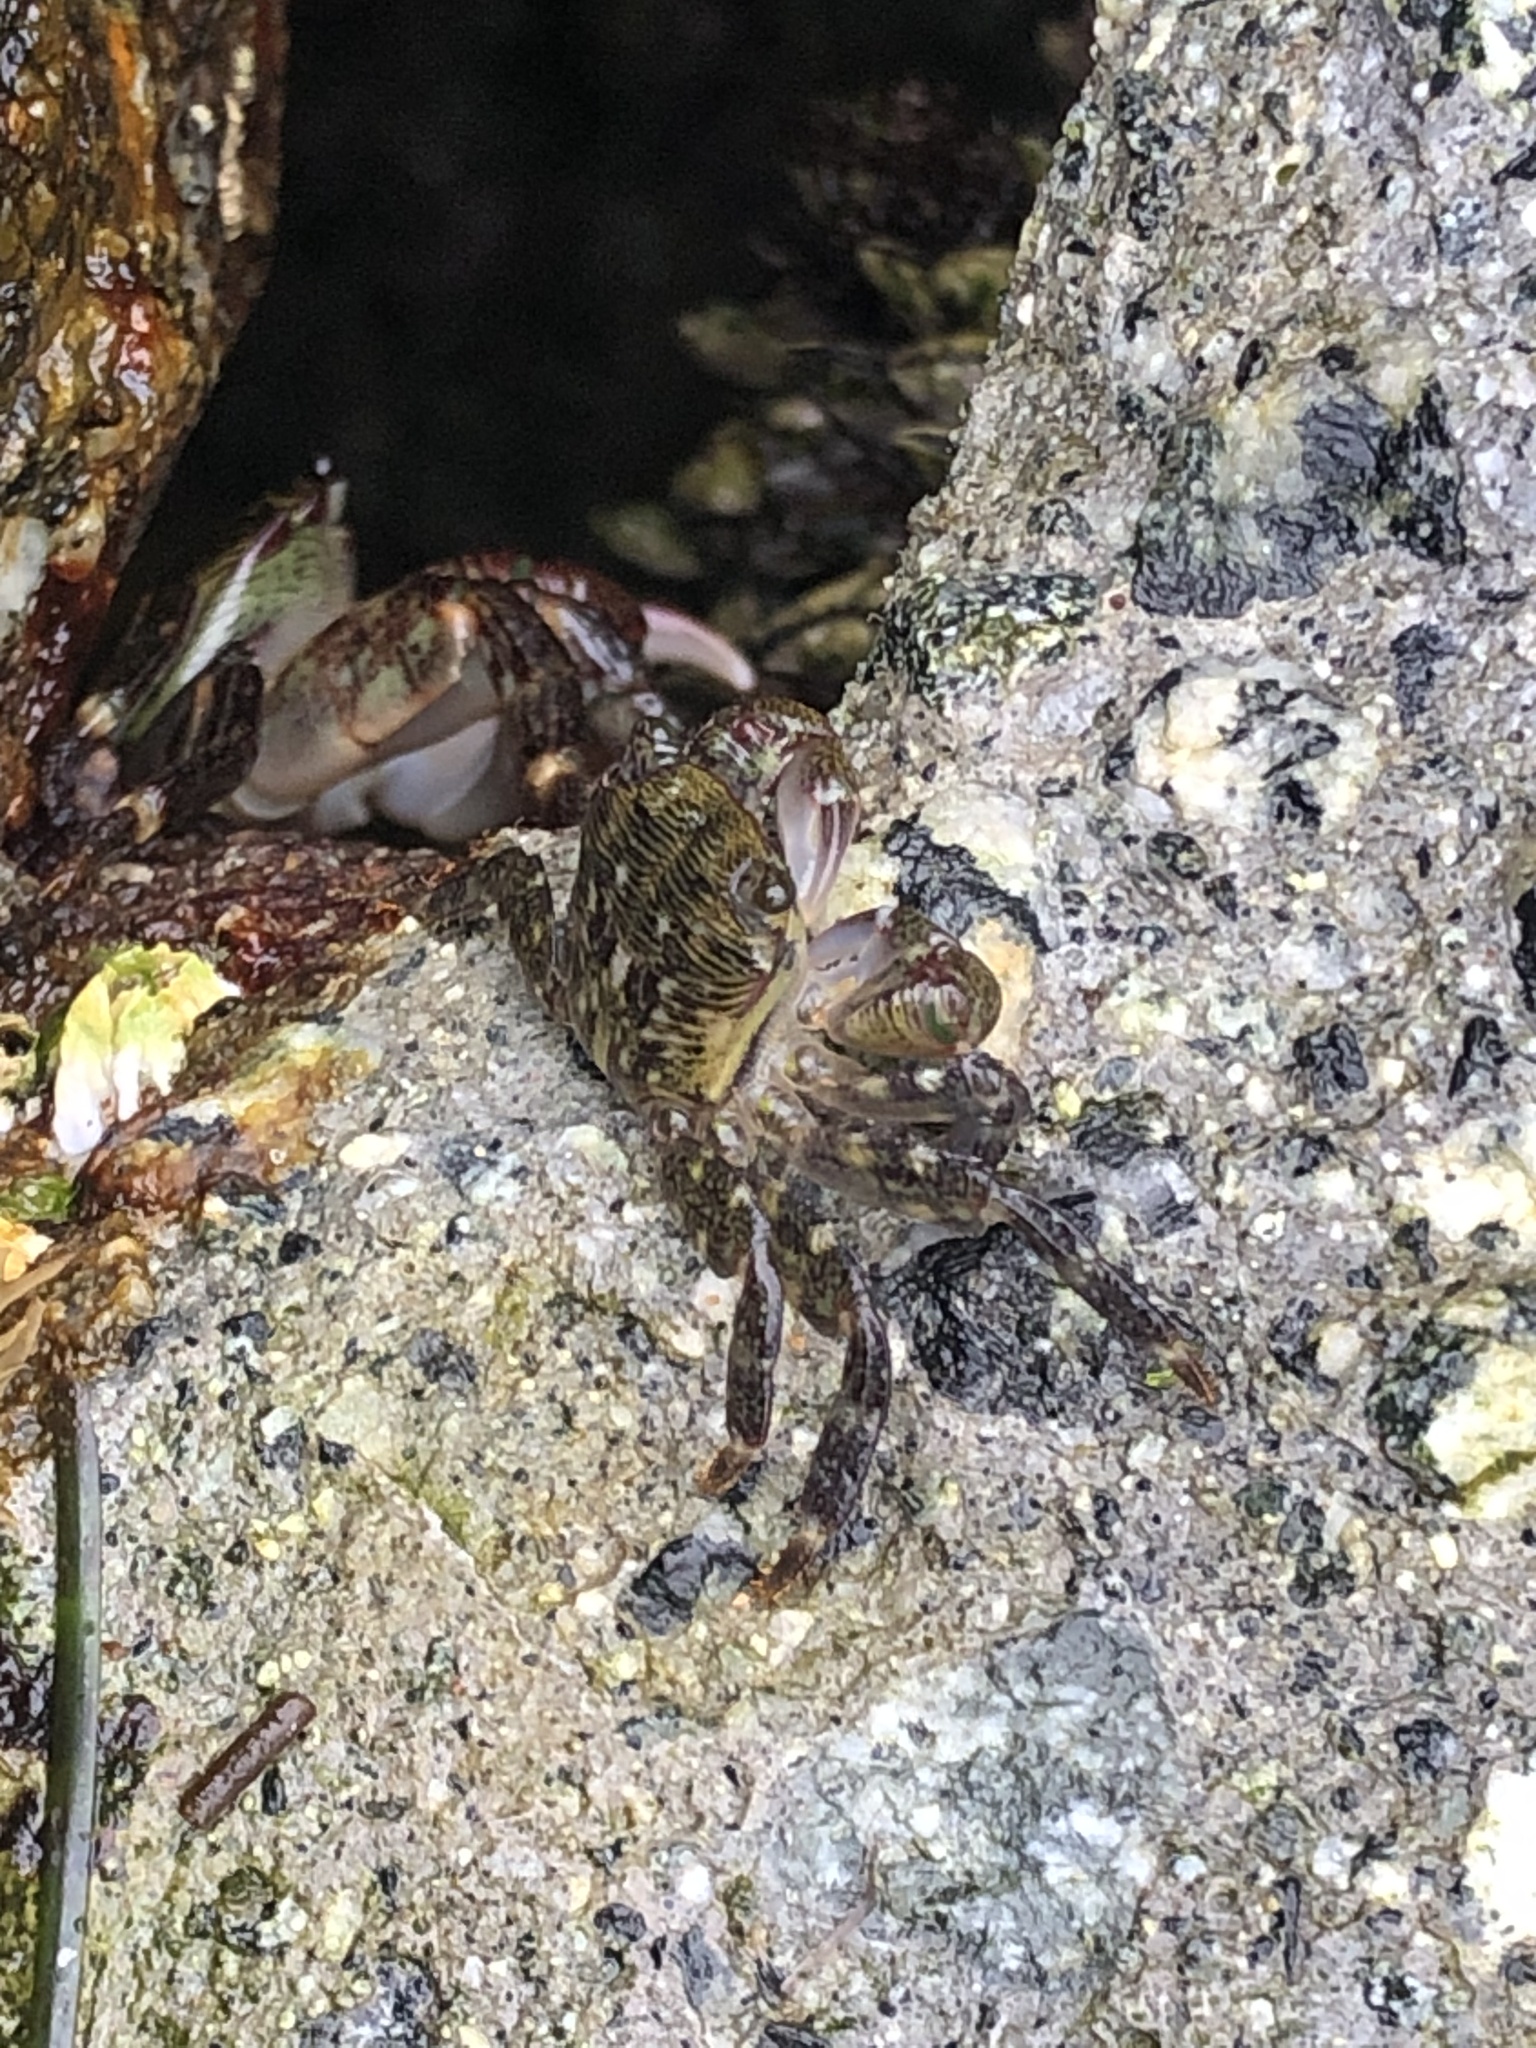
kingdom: Animalia
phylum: Arthropoda
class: Malacostraca
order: Decapoda
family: Grapsidae
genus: Pachygrapsus
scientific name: Pachygrapsus crassipes
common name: Striped shore crab
